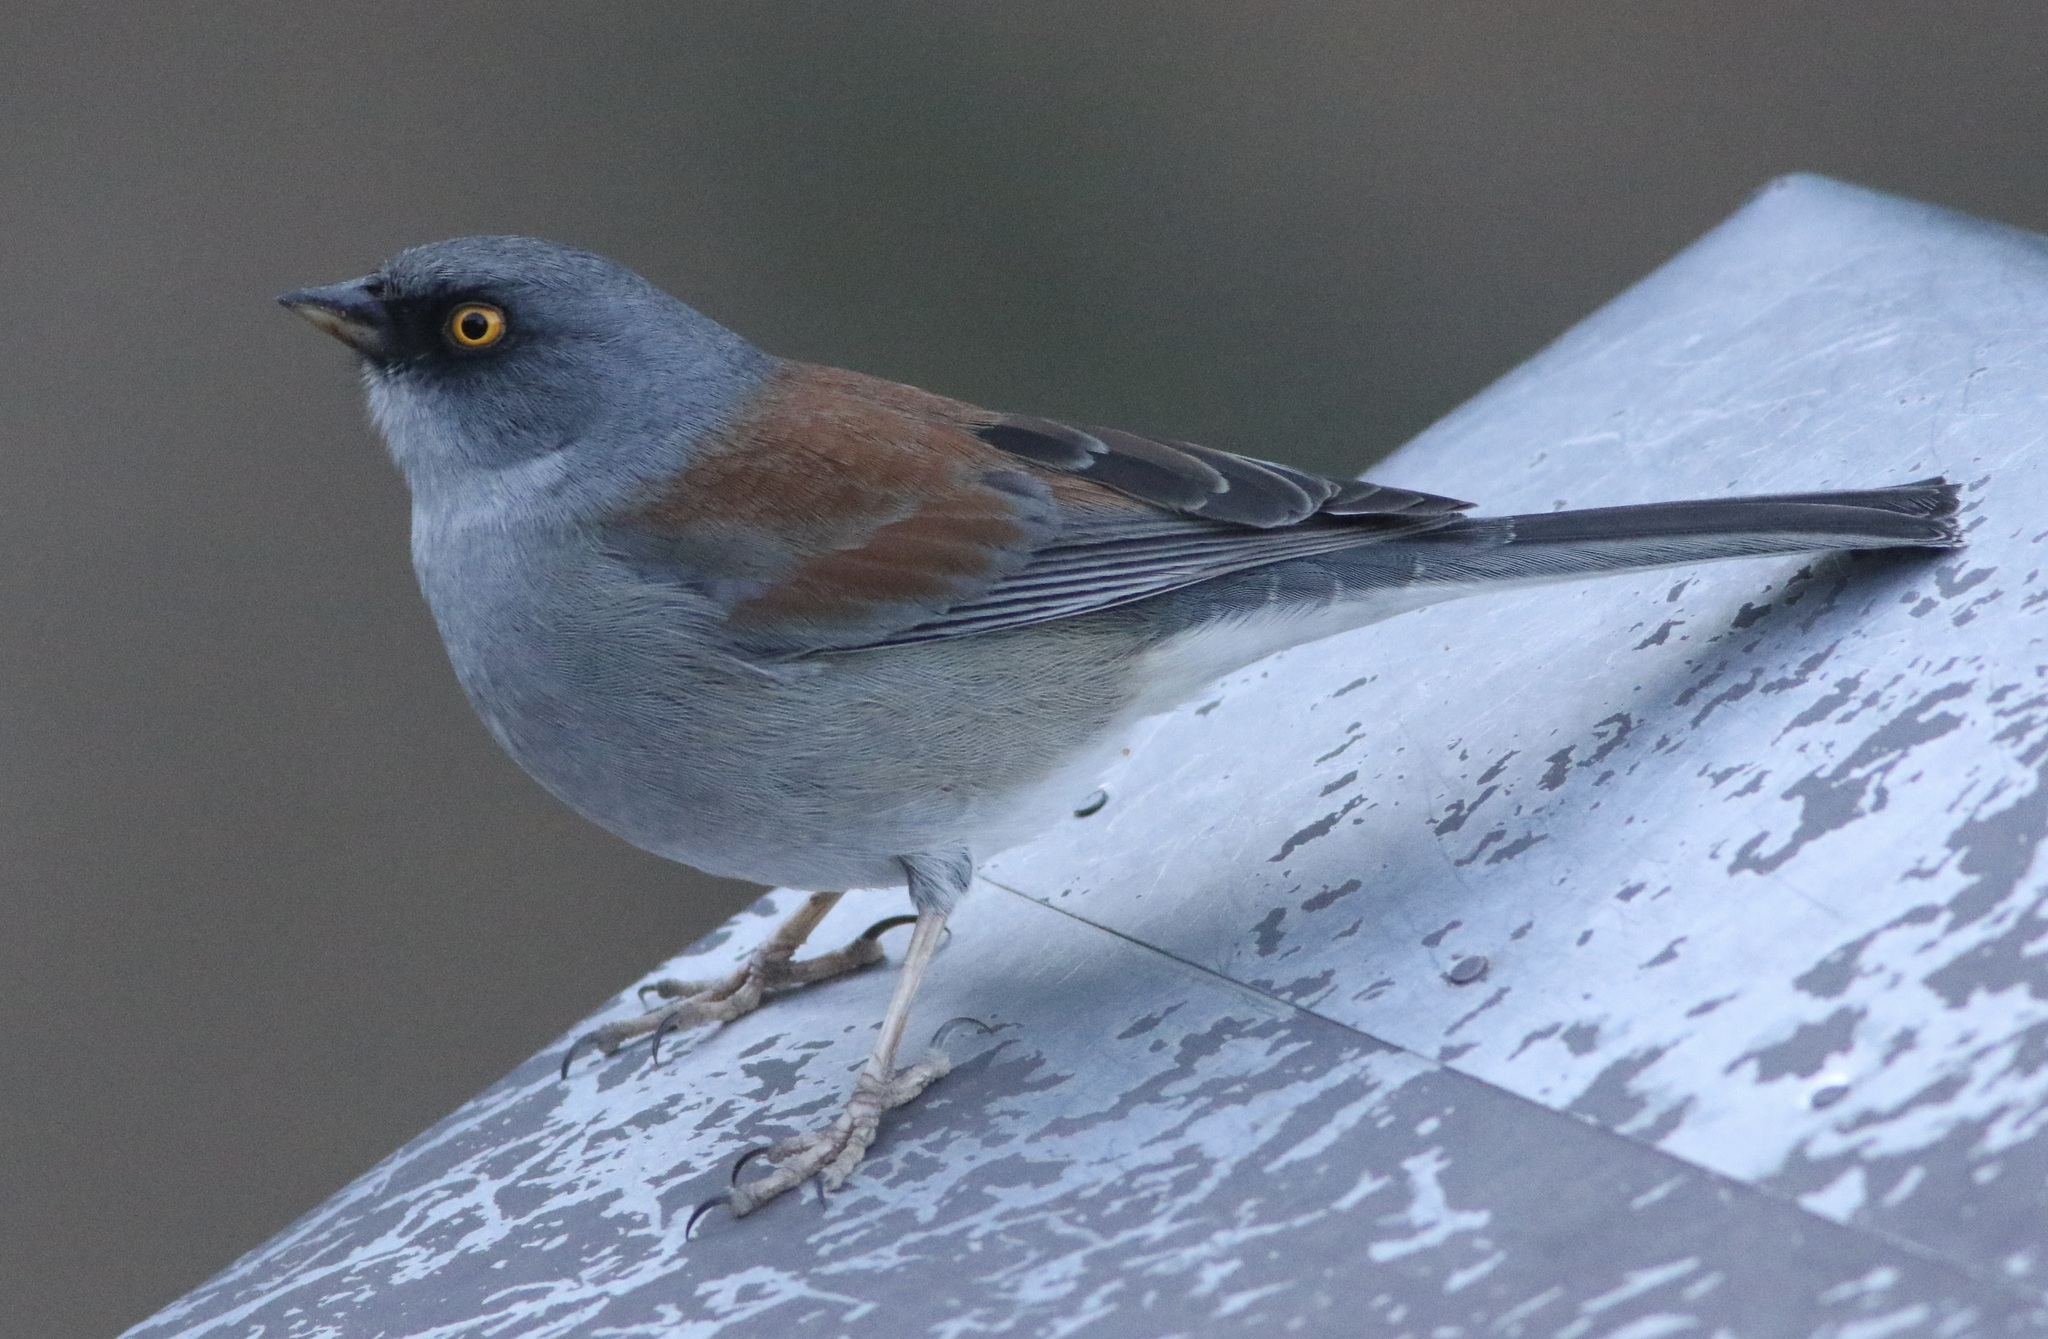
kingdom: Animalia
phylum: Chordata
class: Aves
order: Passeriformes
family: Passerellidae
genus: Junco
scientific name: Junco phaeonotus
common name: Yellow-eyed junco
